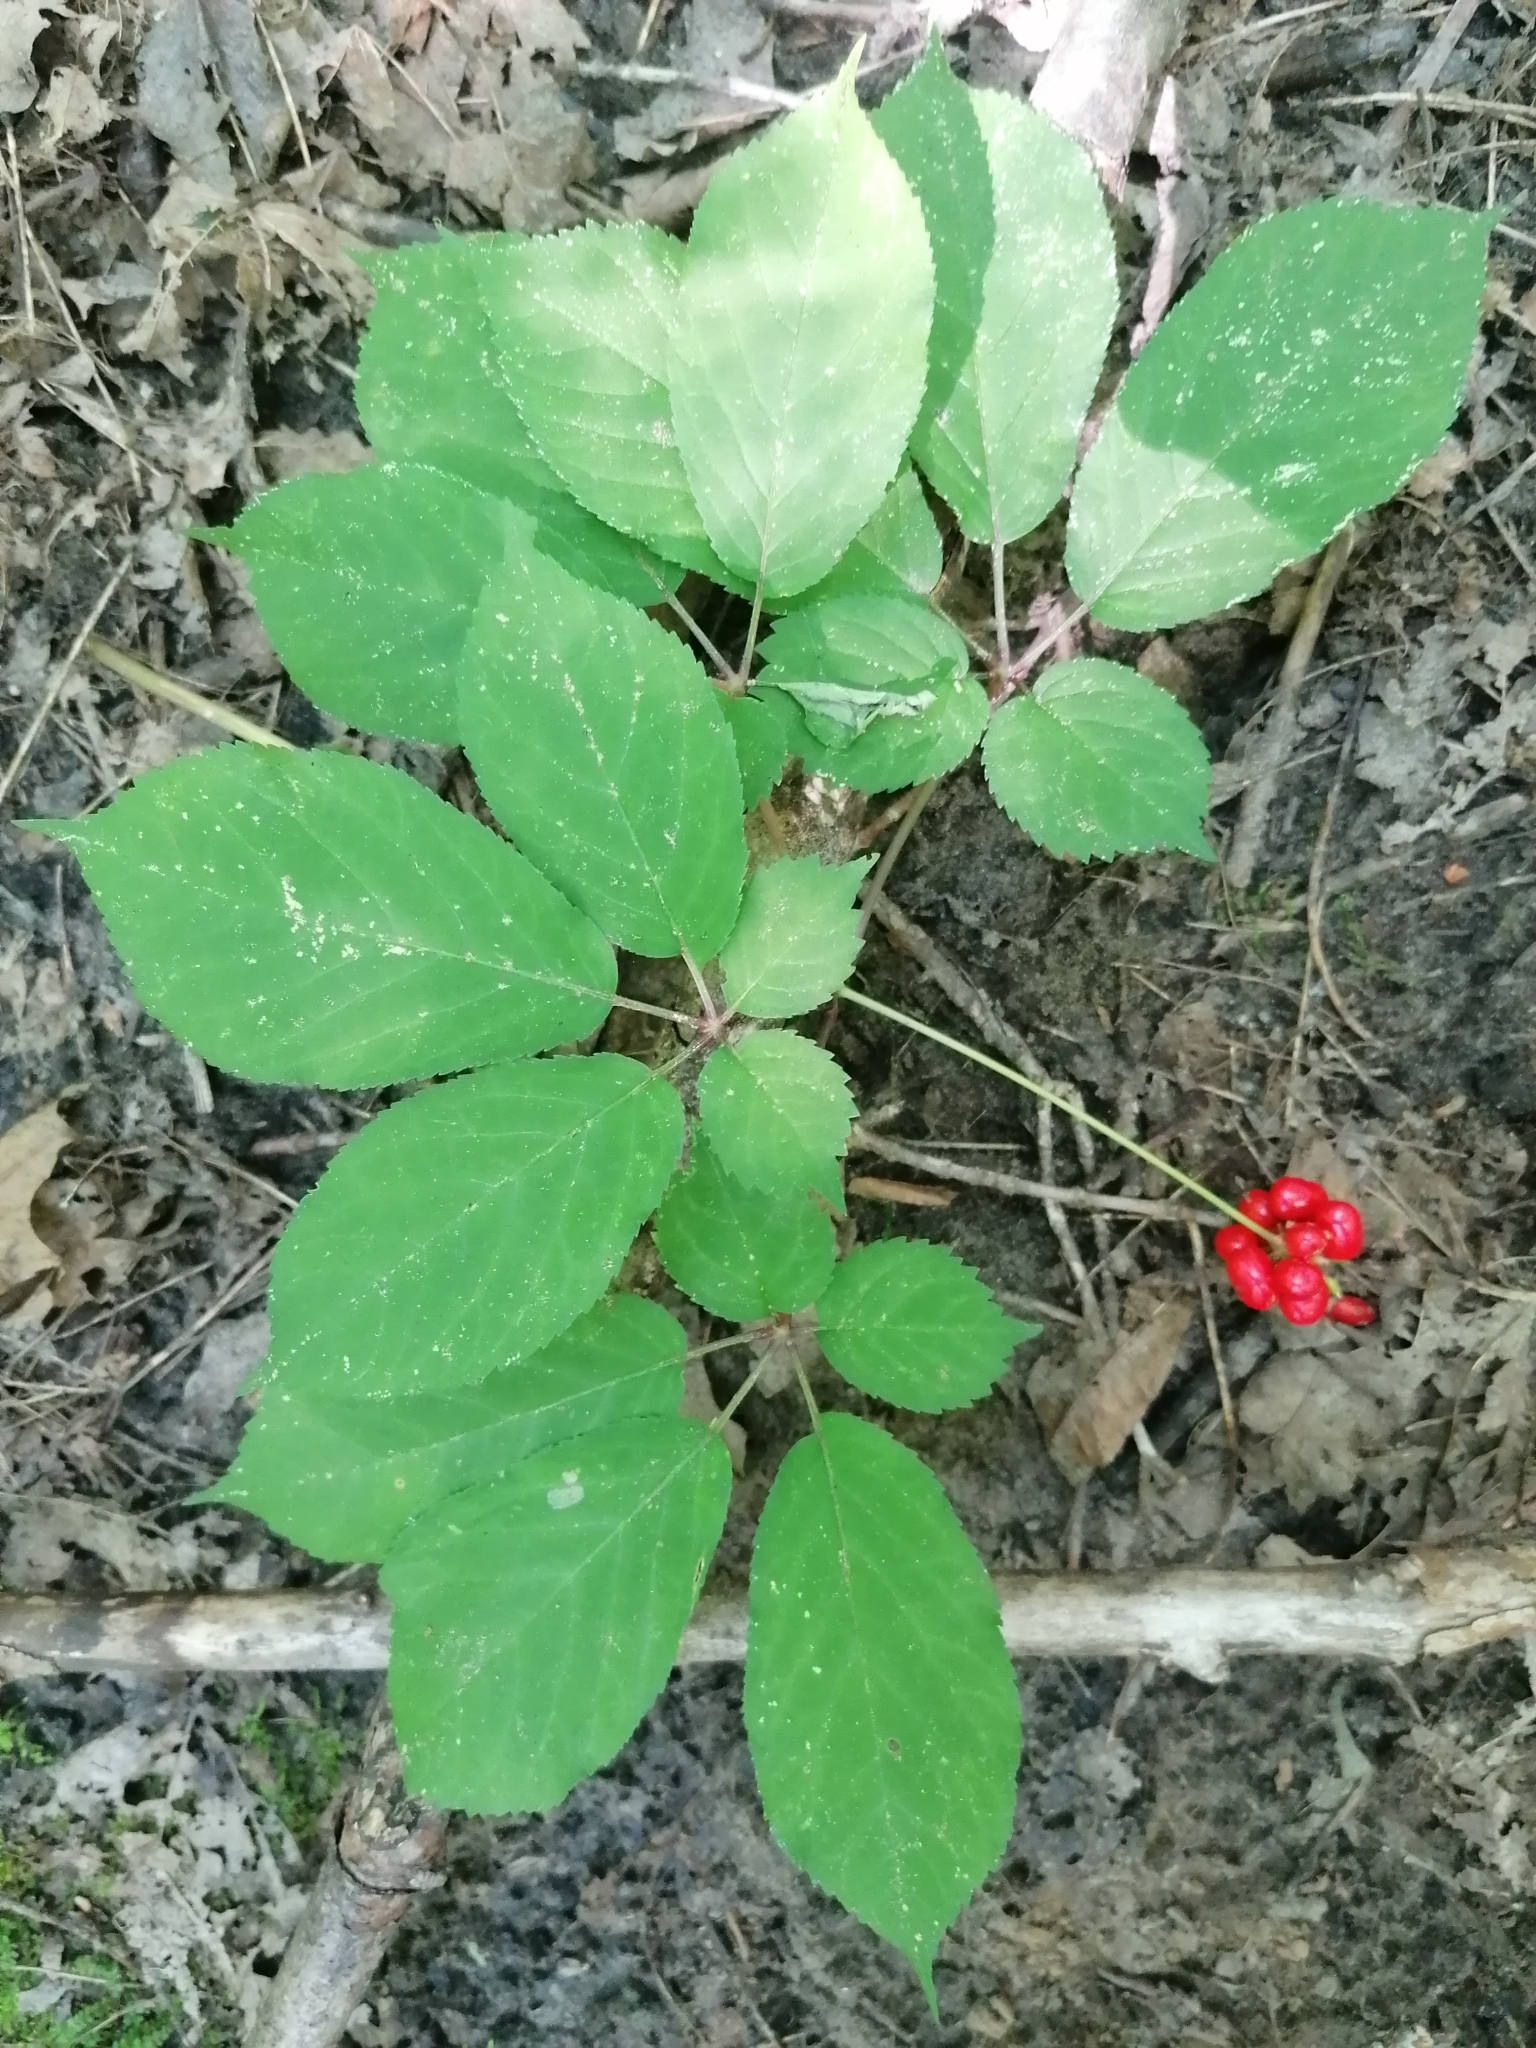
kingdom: Plantae
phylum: Tracheophyta
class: Magnoliopsida
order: Apiales
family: Araliaceae
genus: Panax
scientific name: Panax quinquefolius
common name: American ginseng
